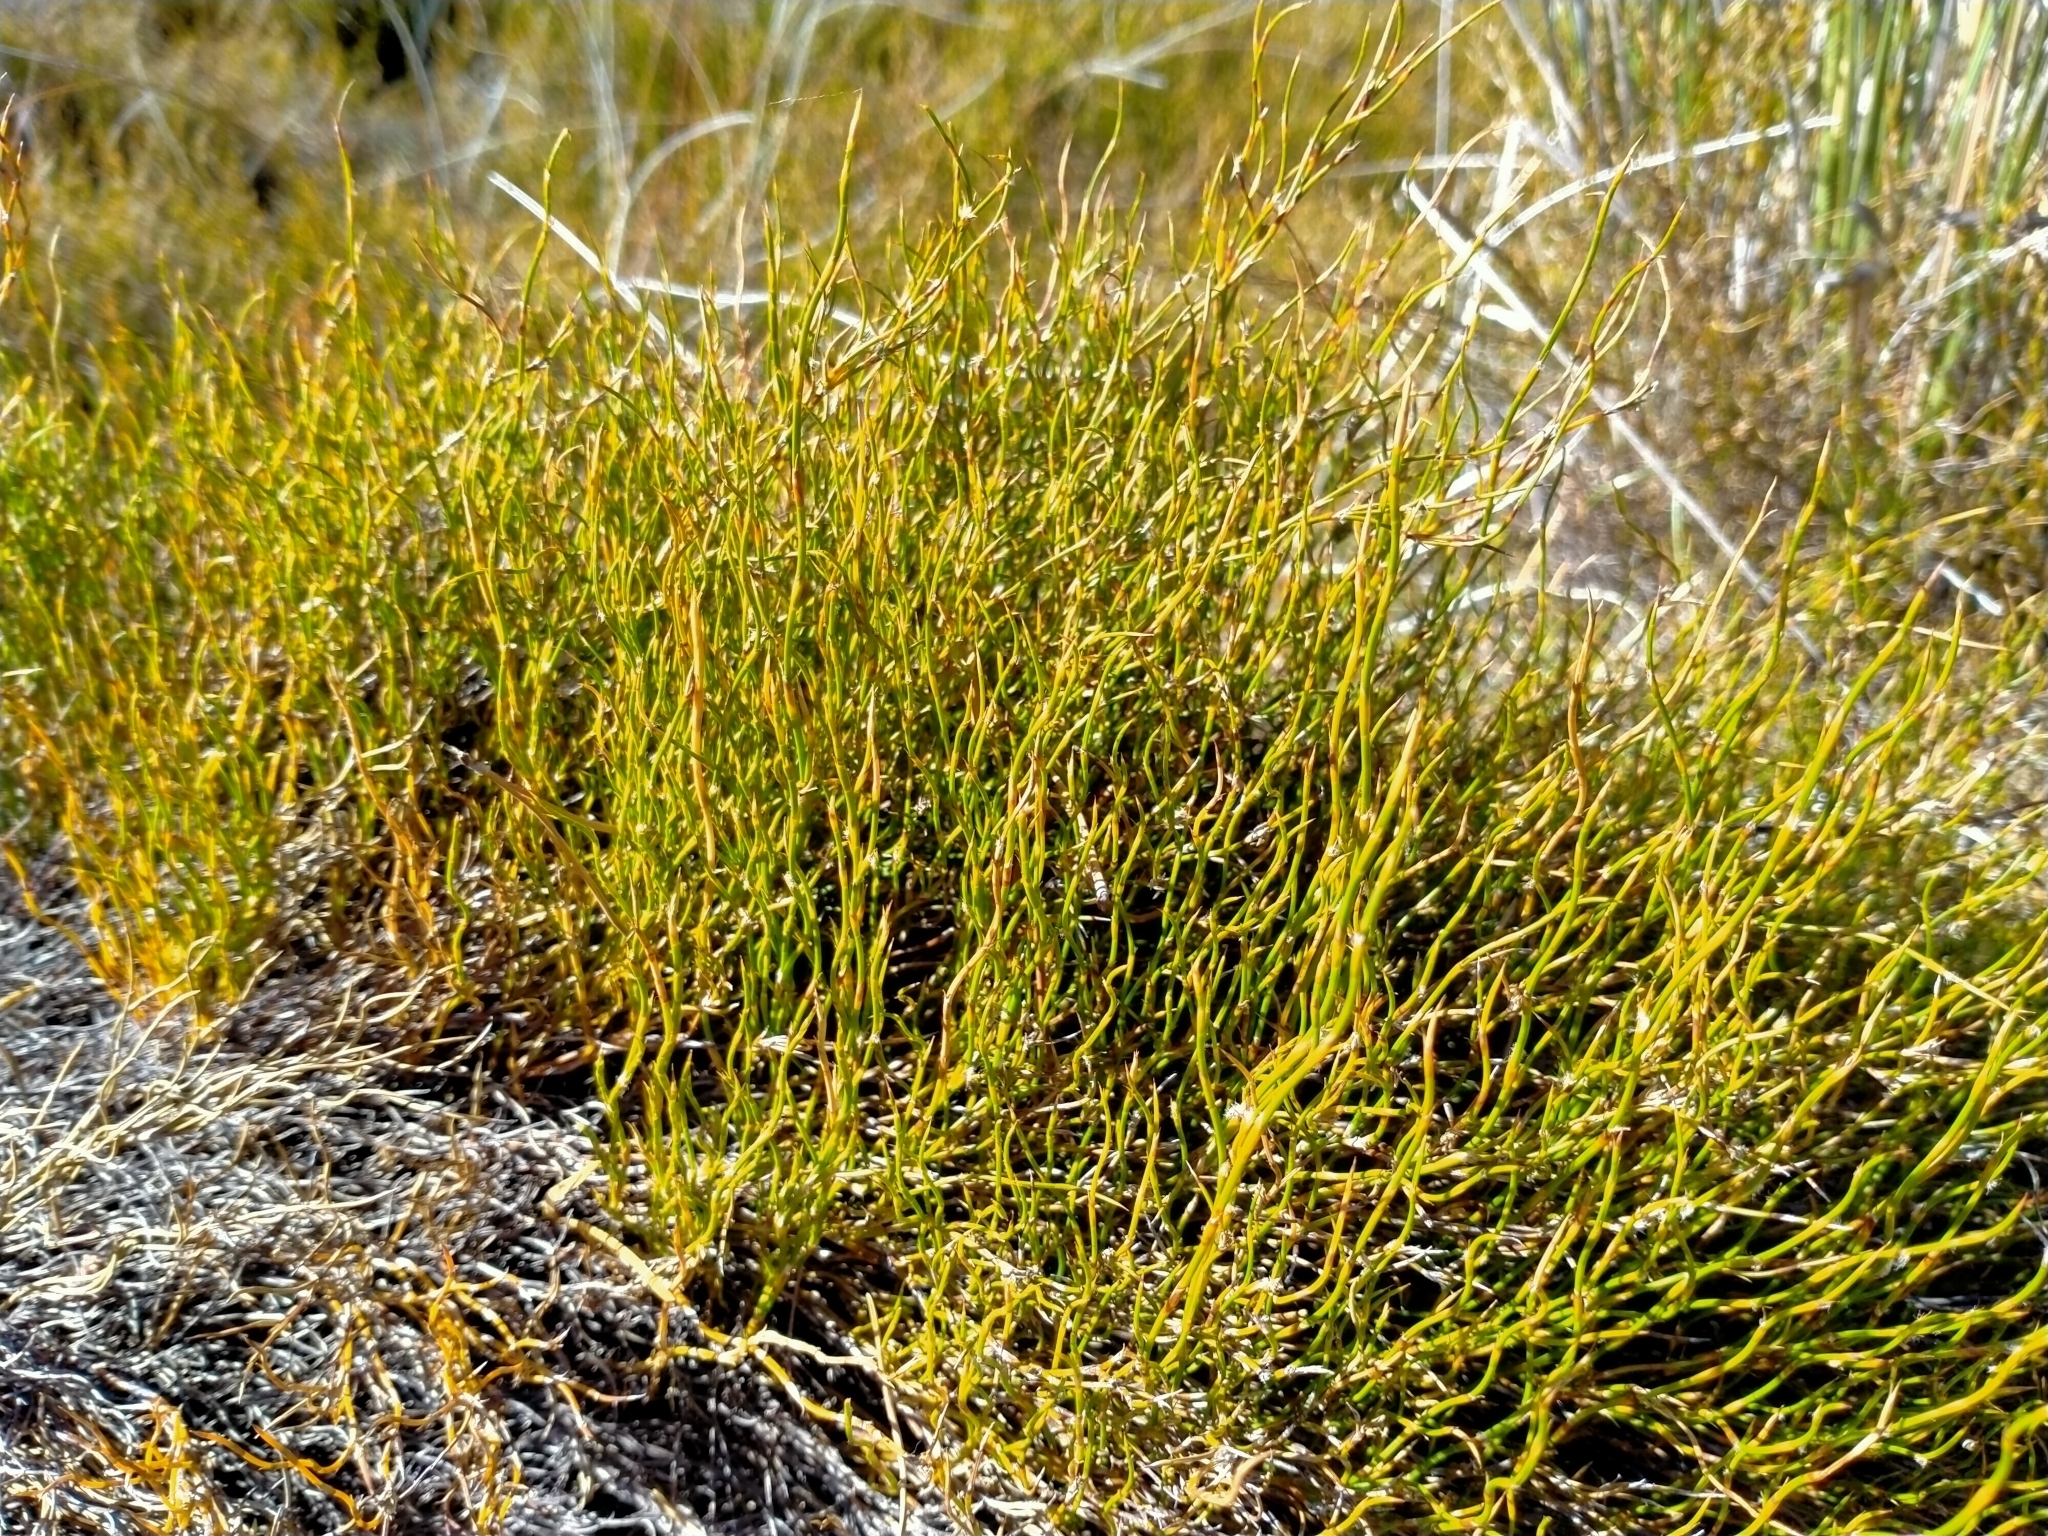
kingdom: Plantae
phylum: Tracheophyta
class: Liliopsida
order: Poales
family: Restionaceae
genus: Empodisma
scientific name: Empodisma minus
